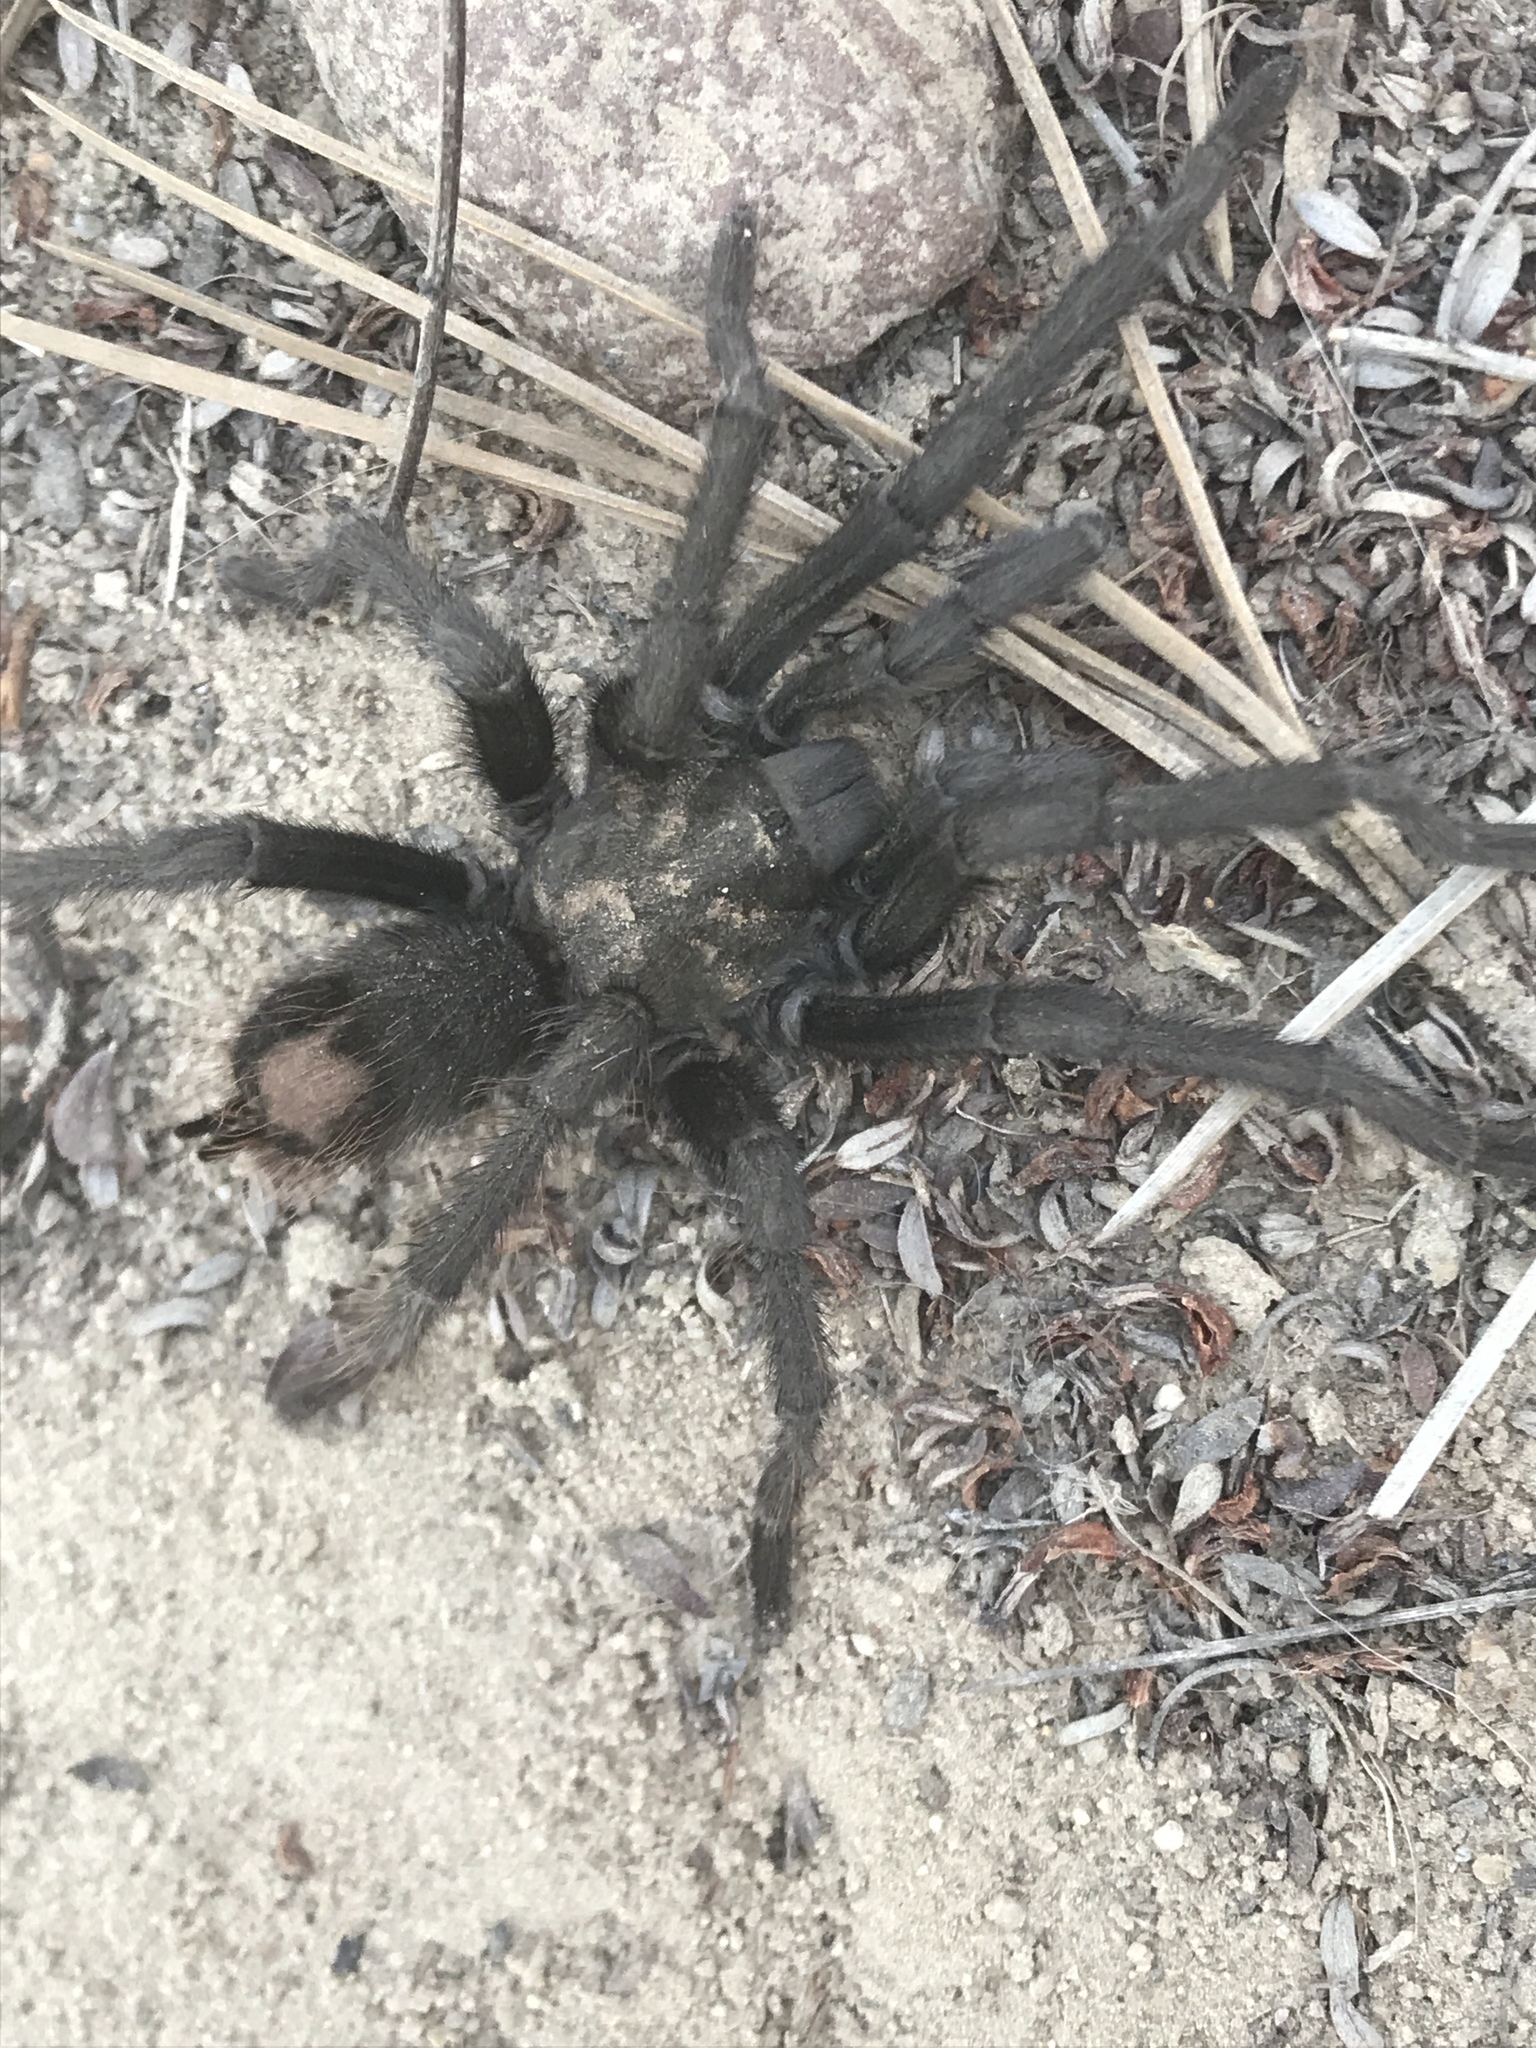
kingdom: Animalia
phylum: Arthropoda
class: Arachnida
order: Araneae
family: Theraphosidae
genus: Aphonopelma
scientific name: Aphonopelma eutylenum
